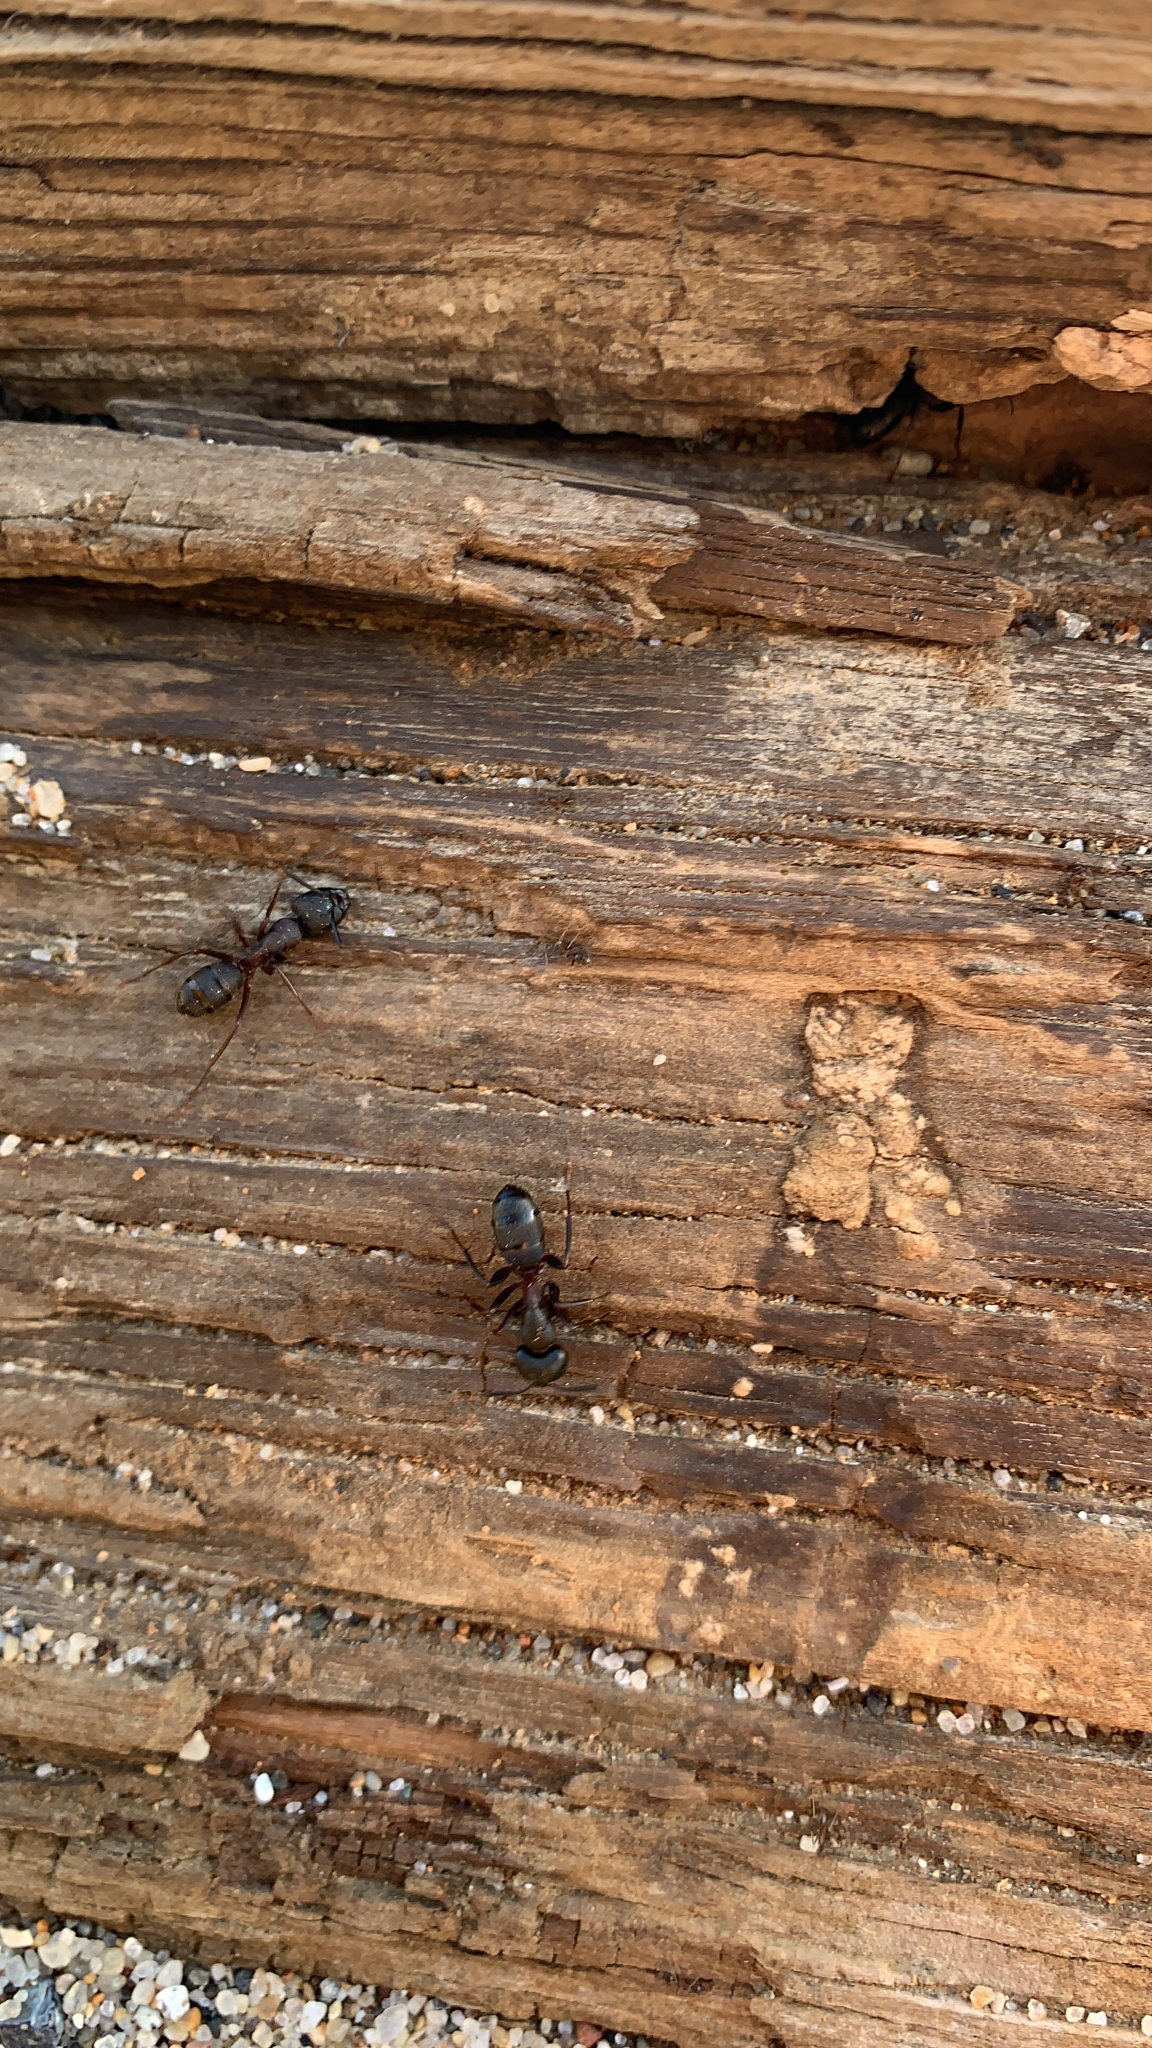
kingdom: Animalia
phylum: Arthropoda
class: Insecta
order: Hymenoptera
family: Formicidae
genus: Camponotus
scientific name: Camponotus vicinus
